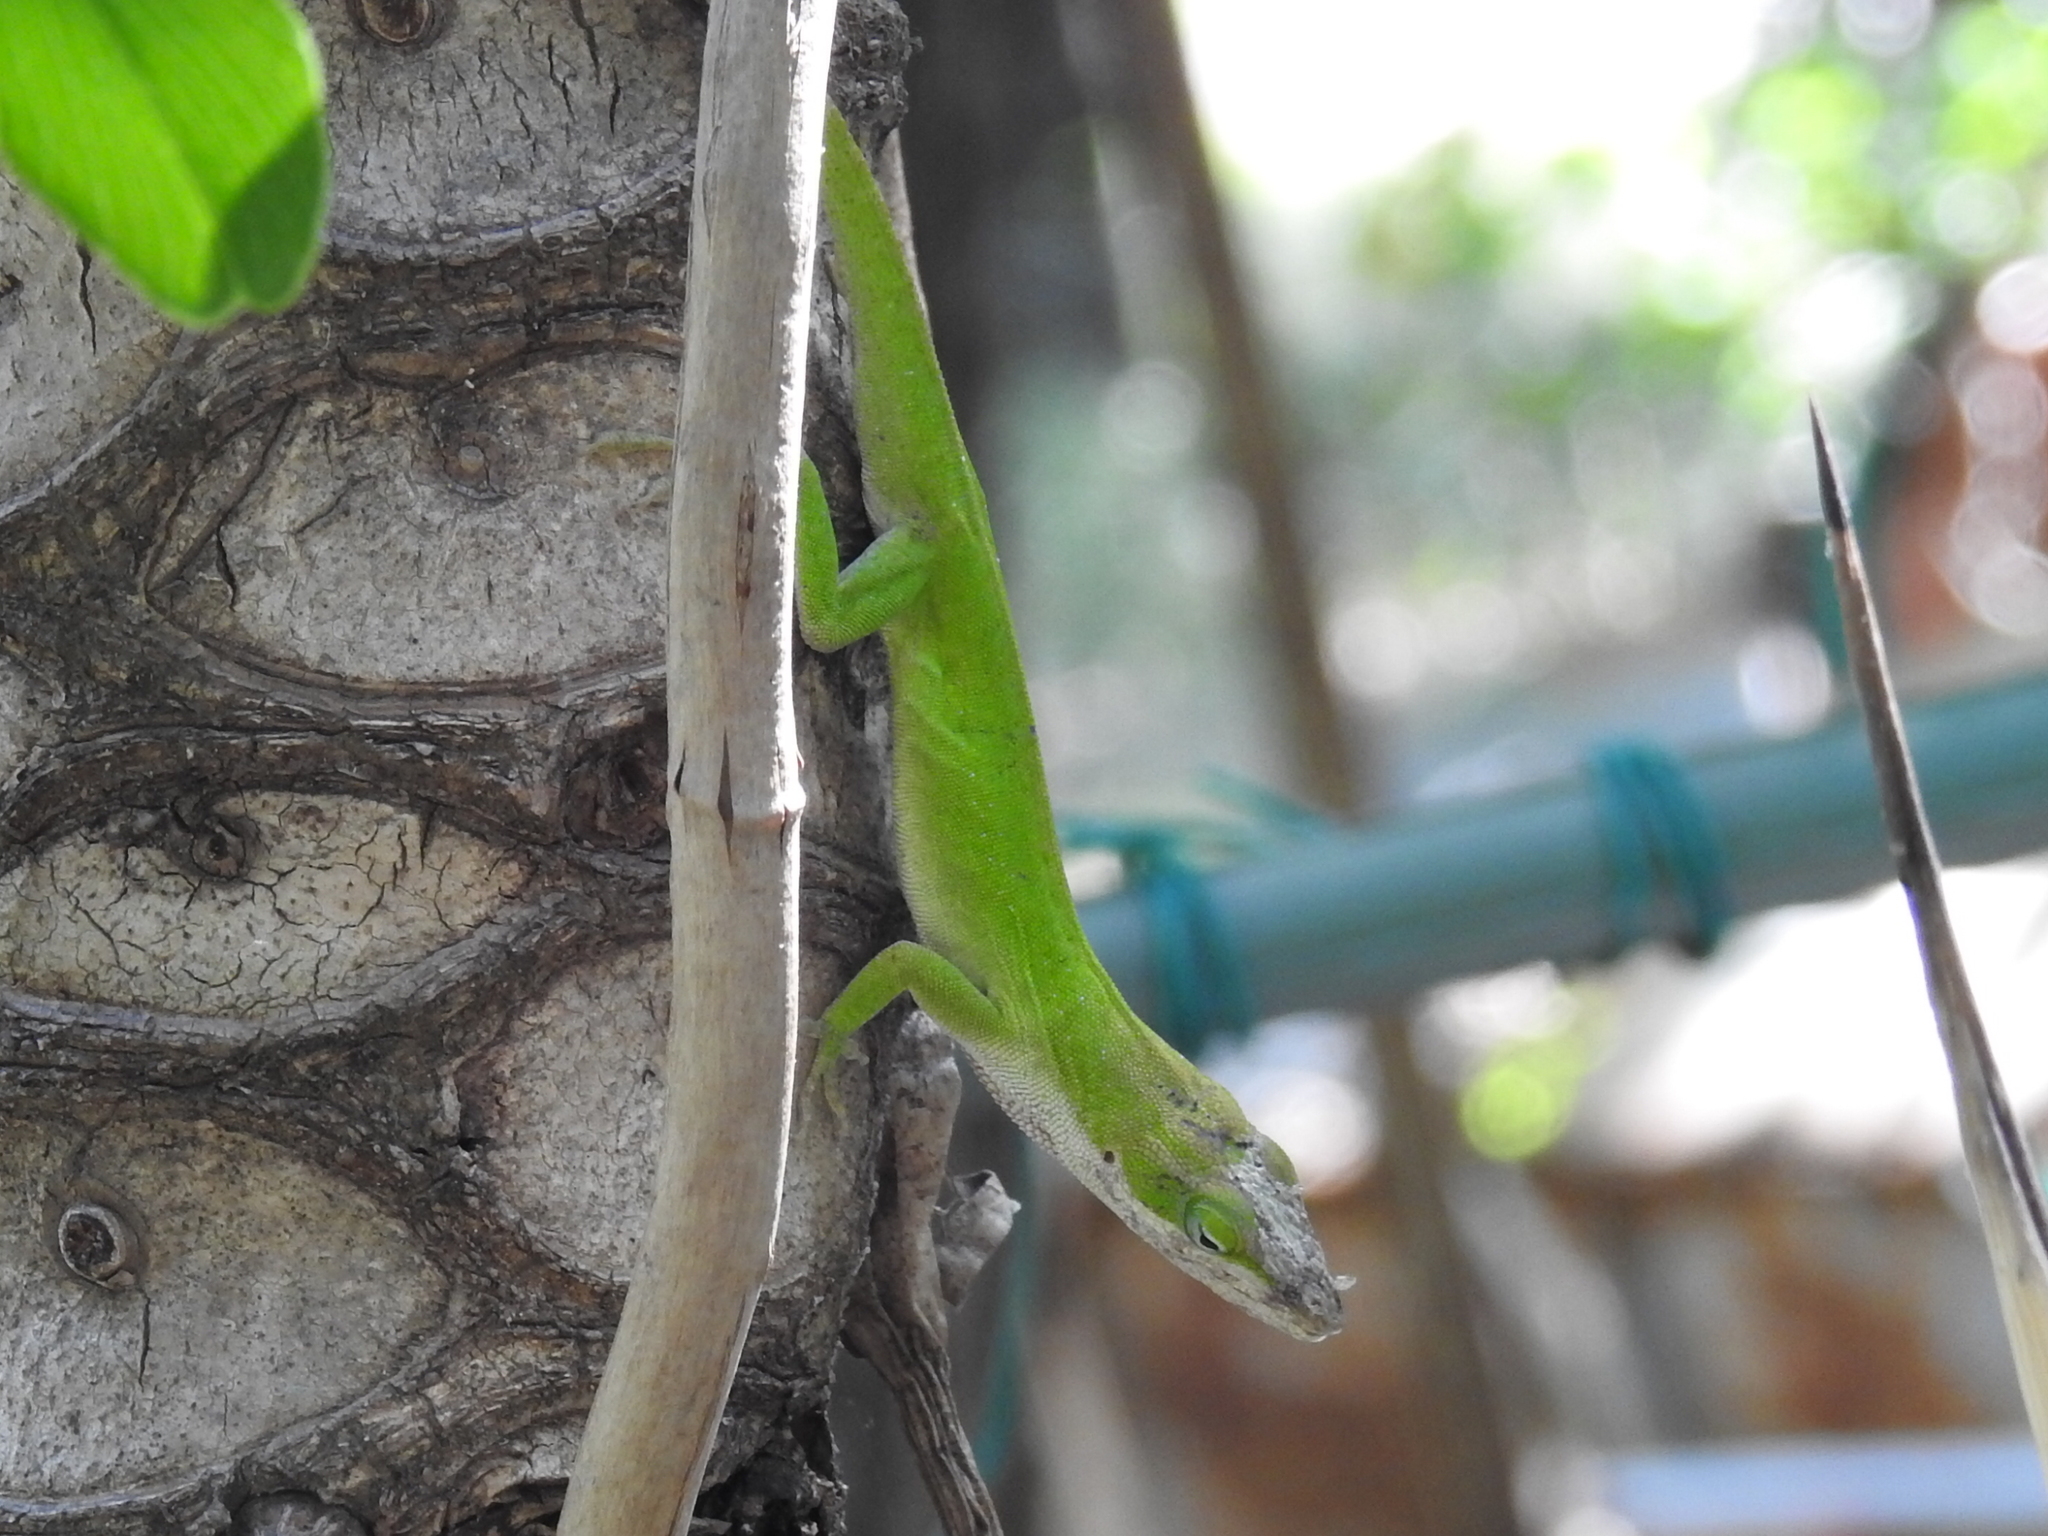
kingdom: Animalia
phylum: Chordata
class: Squamata
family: Dactyloidae
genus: Anolis
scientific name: Anolis carolinensis
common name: Green anole
